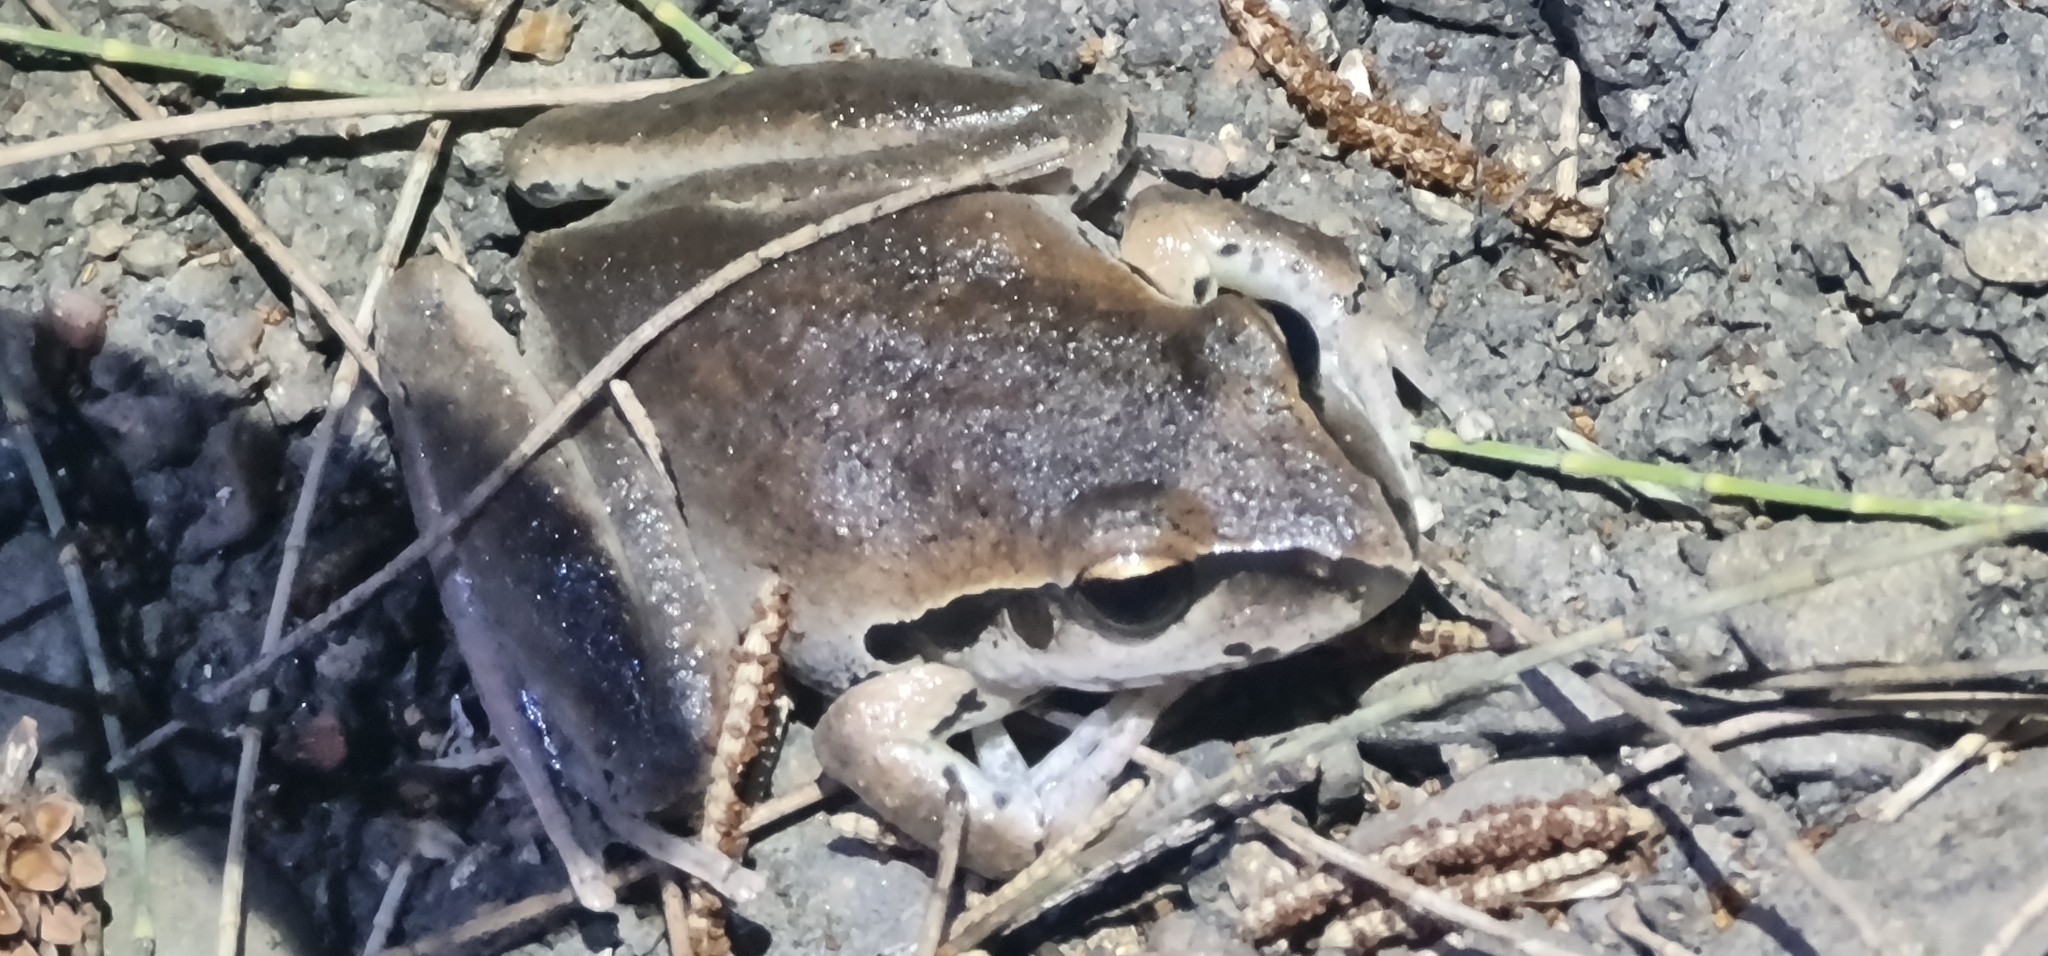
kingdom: Animalia
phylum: Chordata
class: Amphibia
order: Anura
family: Pelodryadidae
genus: Ranoidea
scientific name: Ranoidea wilcoxii
